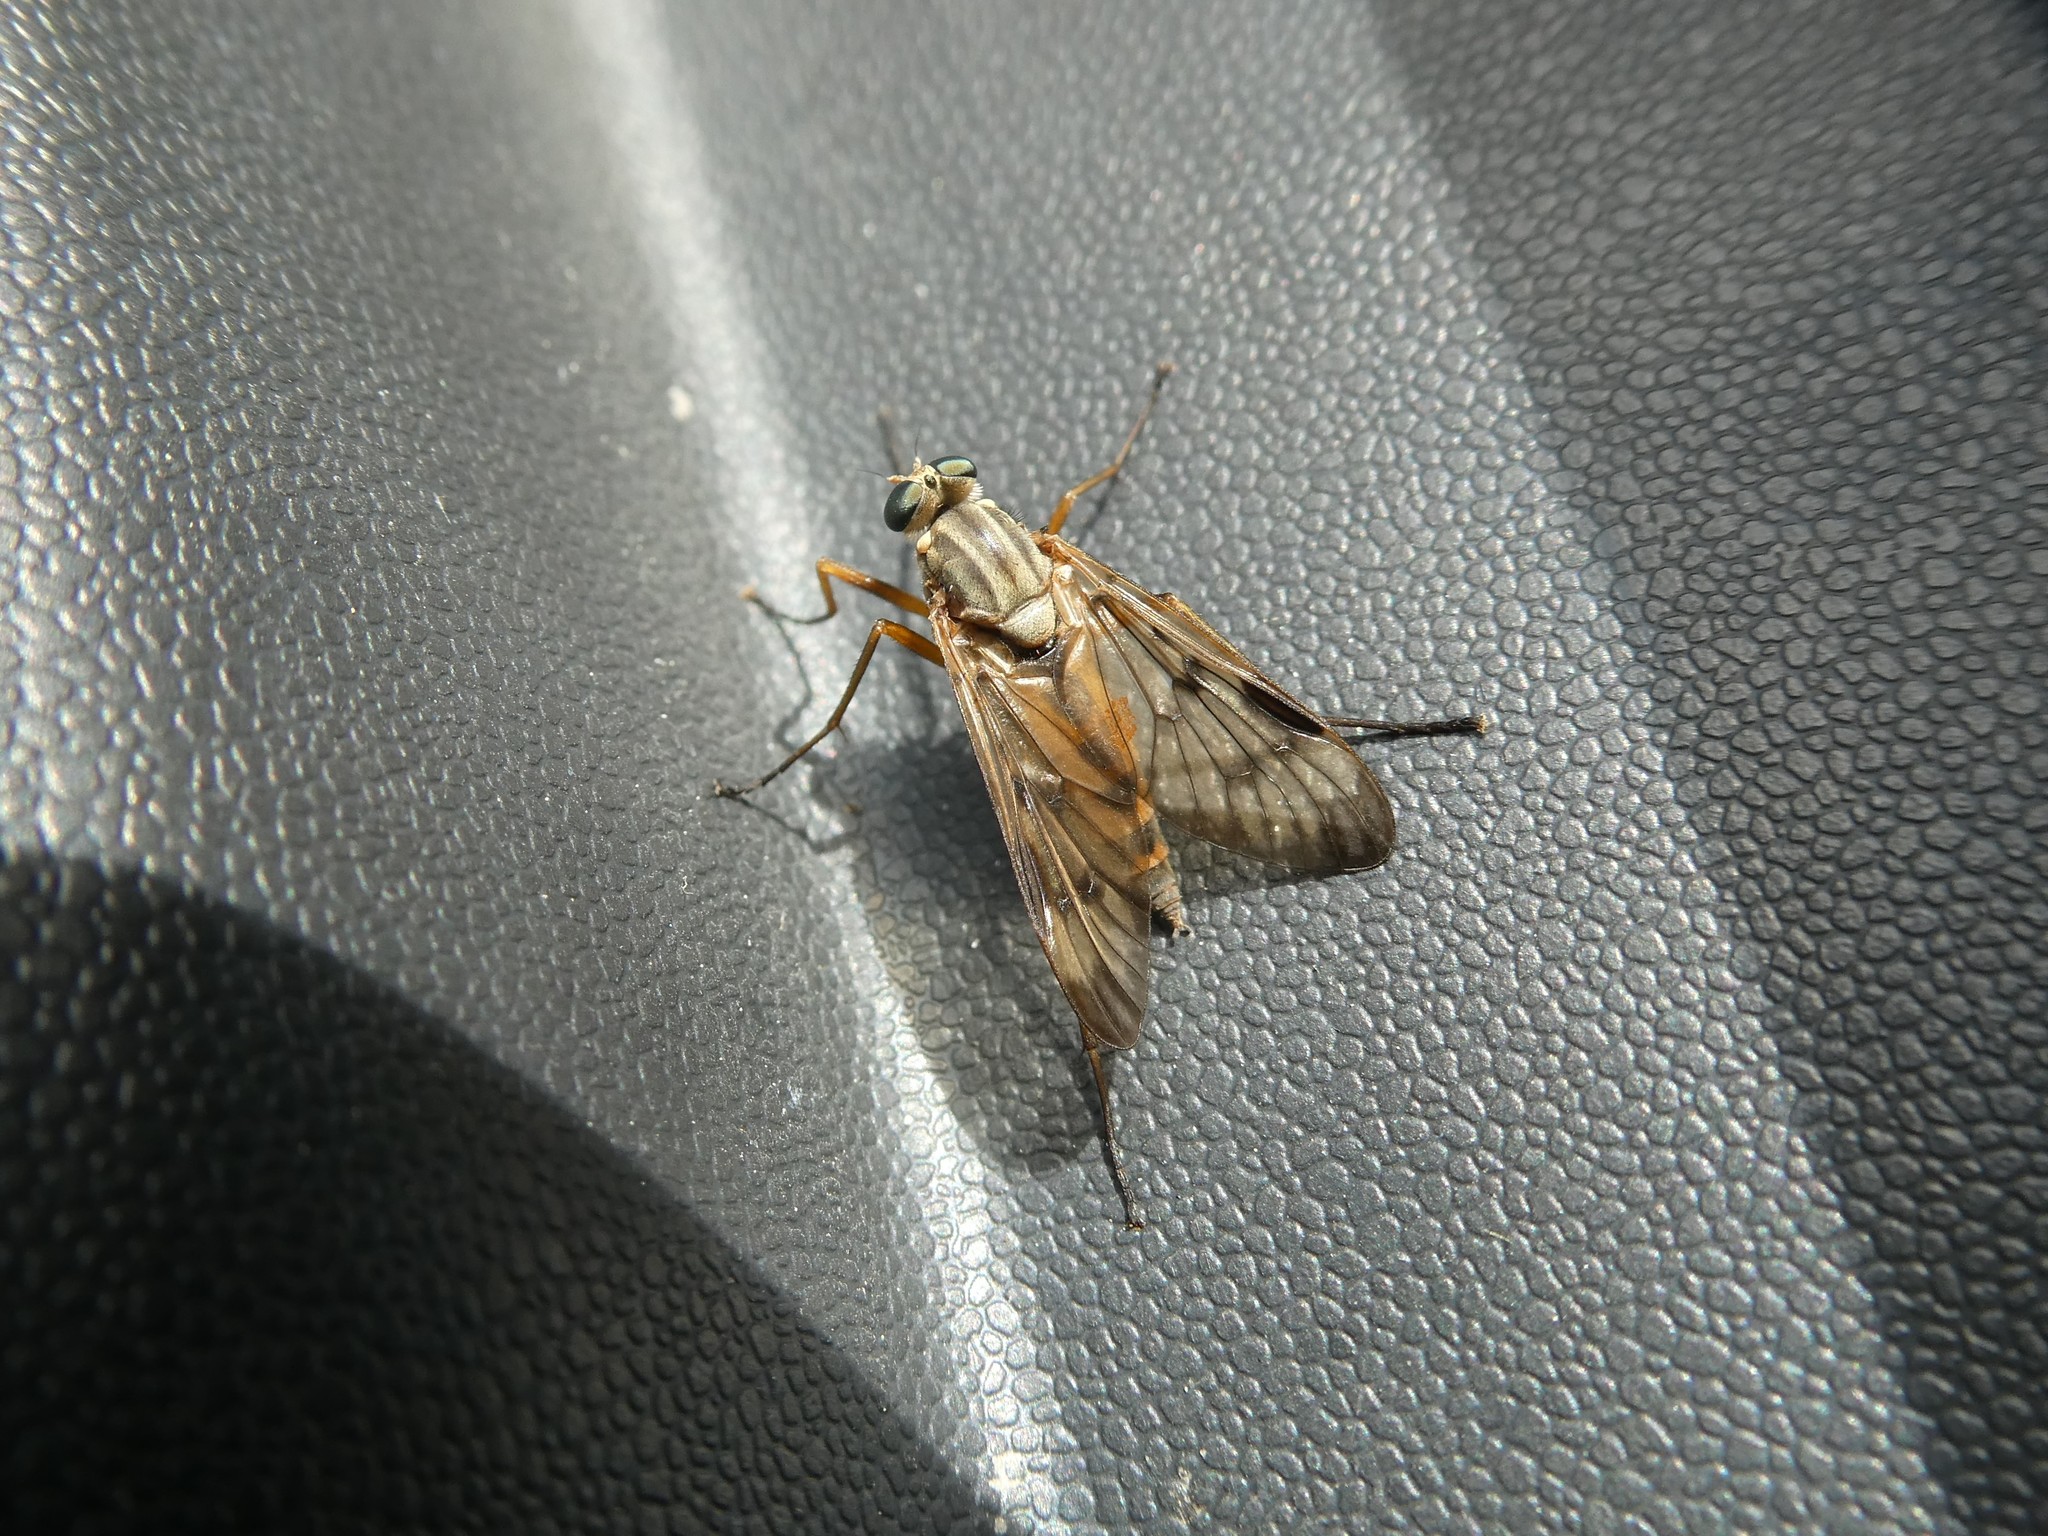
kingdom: Animalia
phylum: Arthropoda
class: Insecta
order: Diptera
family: Rhagionidae
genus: Rhagio
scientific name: Rhagio scolopacea
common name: Downlooker snipefly
